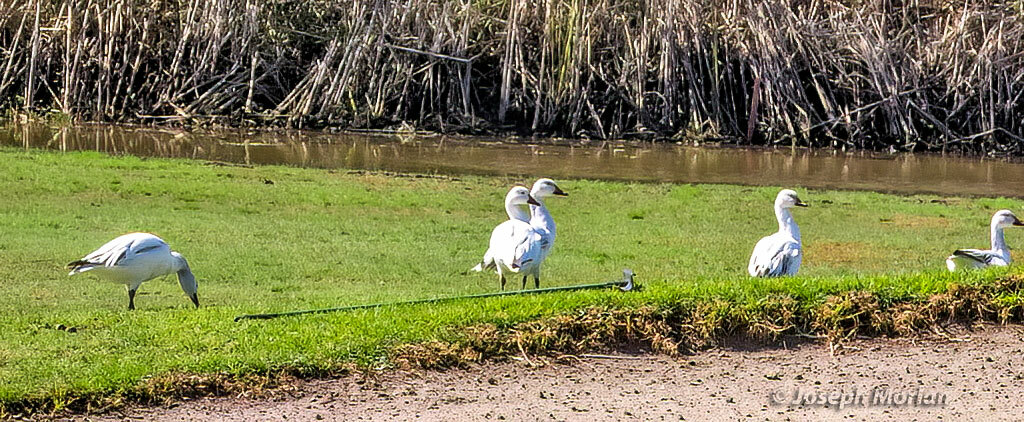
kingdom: Animalia
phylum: Chordata
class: Aves
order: Anseriformes
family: Anatidae
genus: Anser
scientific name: Anser caerulescens
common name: Snow goose
